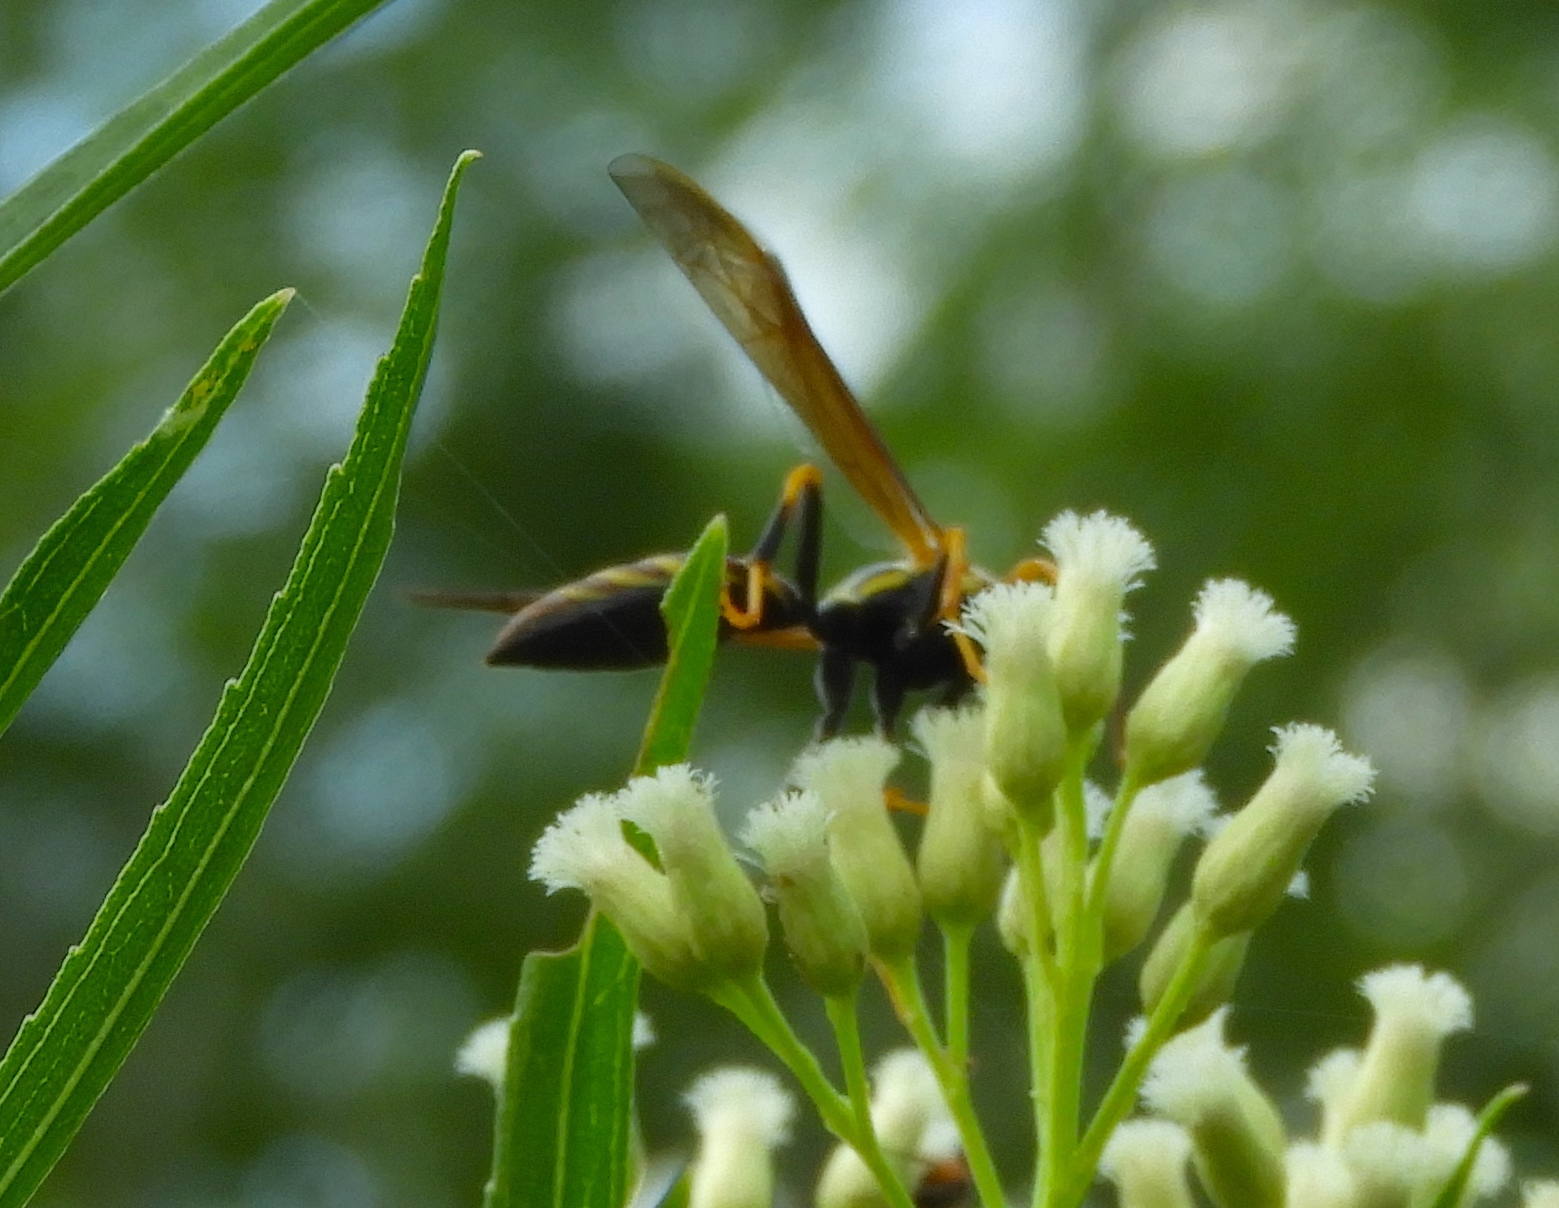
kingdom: Animalia
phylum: Arthropoda
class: Insecta
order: Hymenoptera
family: Vespidae
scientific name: Vespidae
